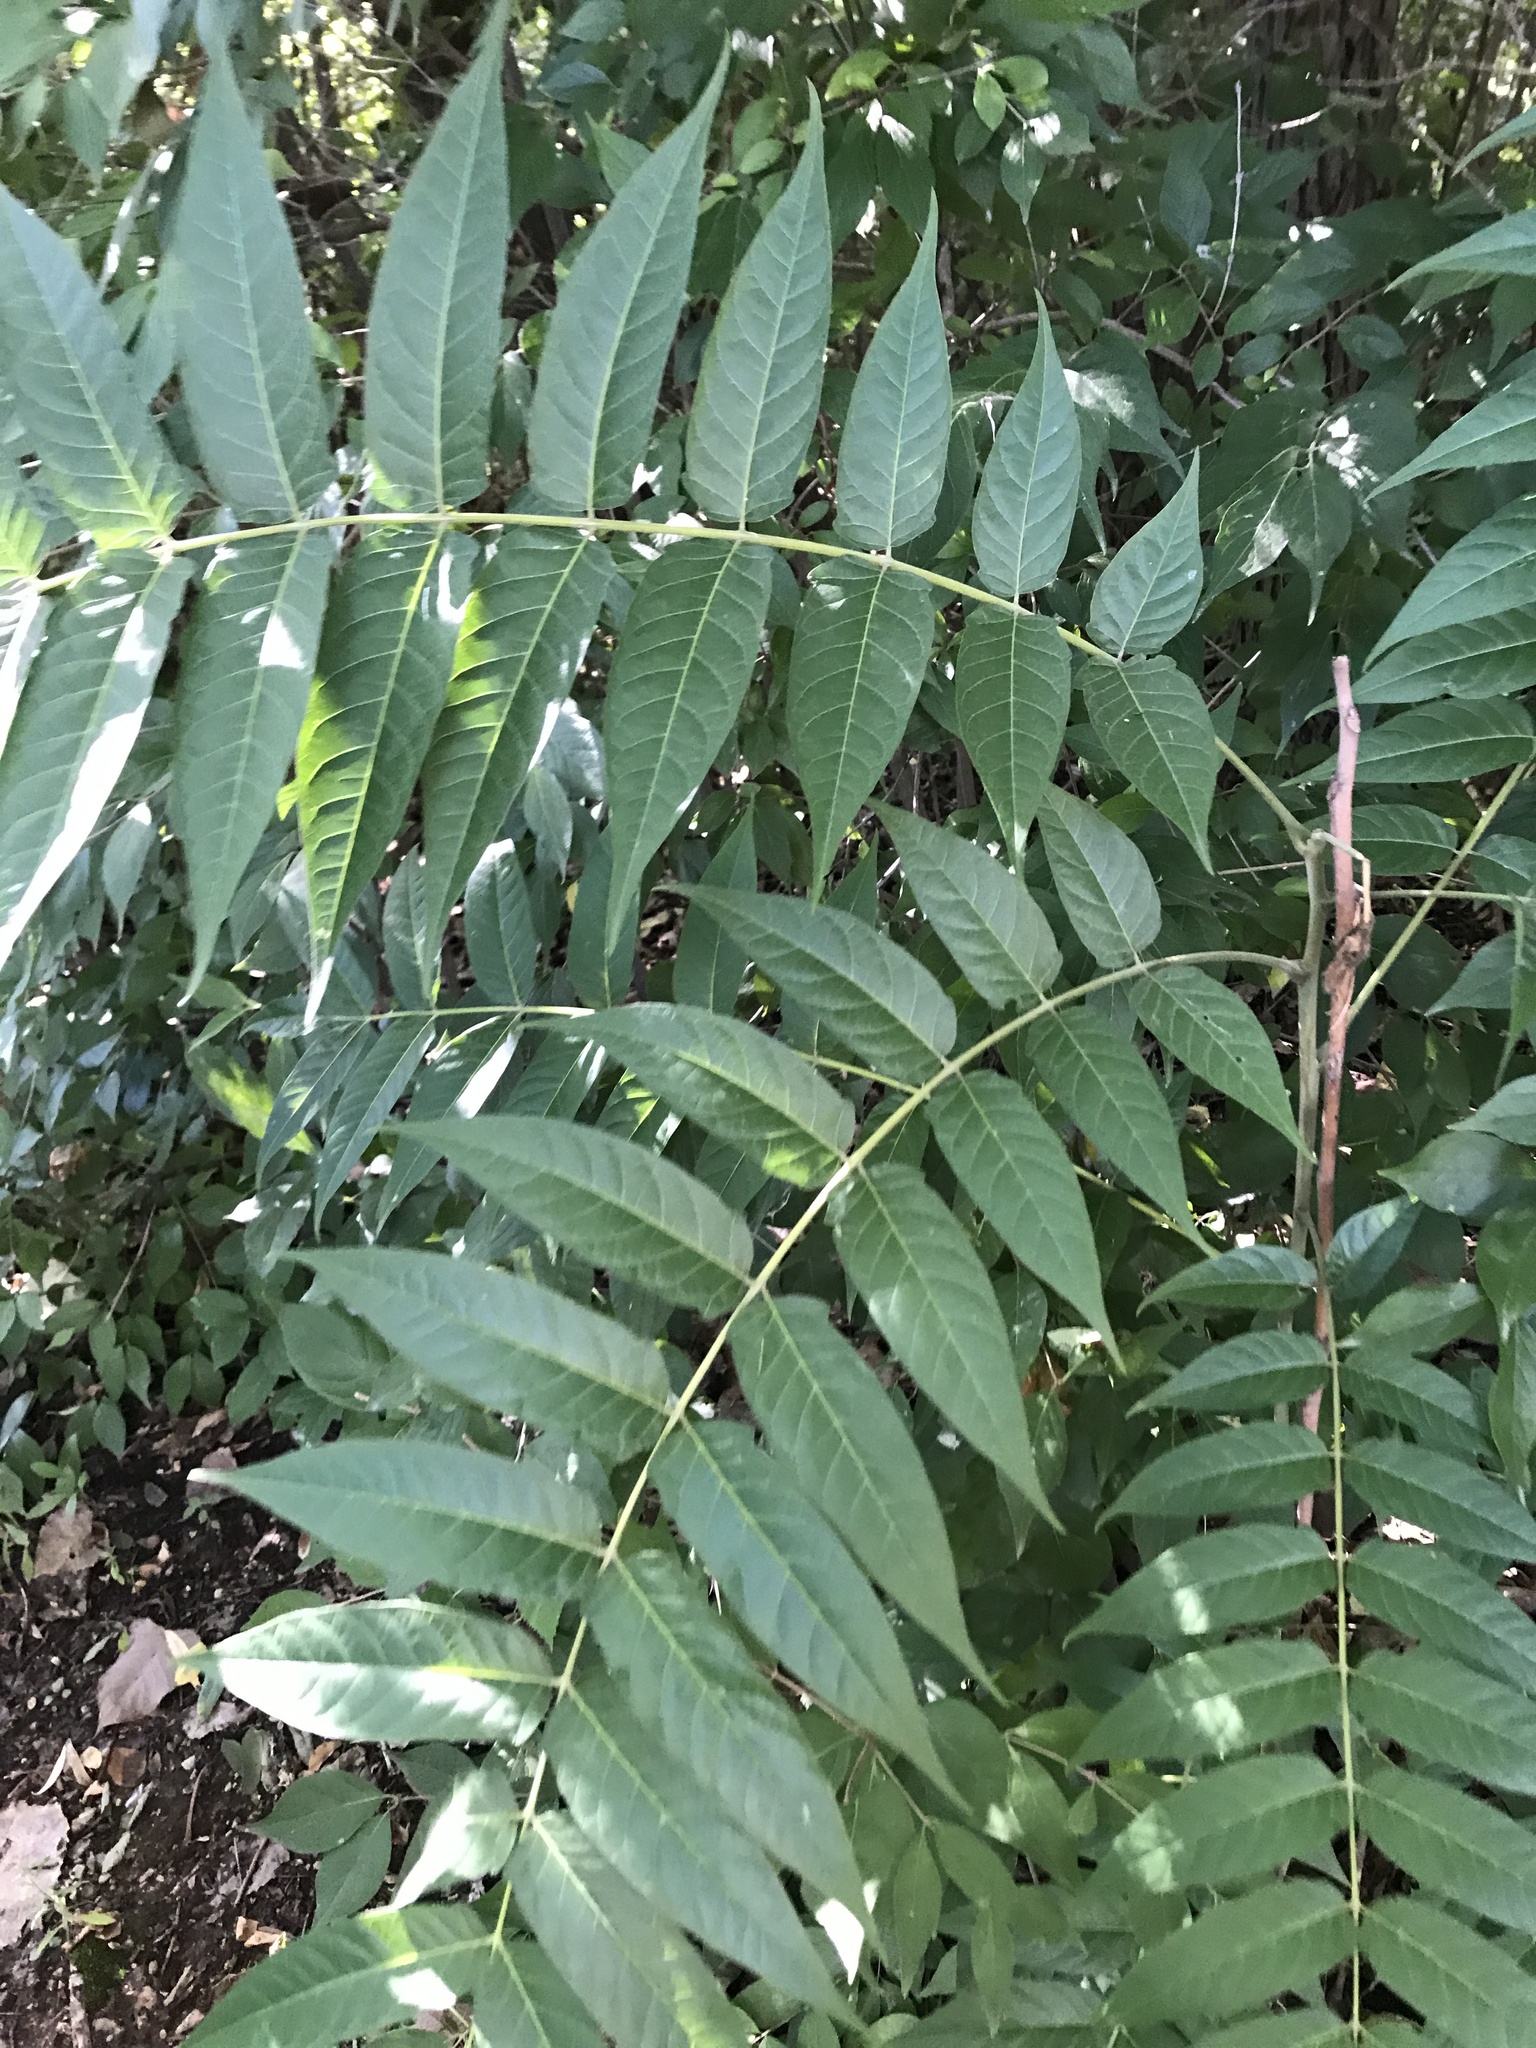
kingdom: Plantae
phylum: Tracheophyta
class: Magnoliopsida
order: Sapindales
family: Simaroubaceae
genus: Ailanthus
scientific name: Ailanthus altissima
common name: Tree-of-heaven
